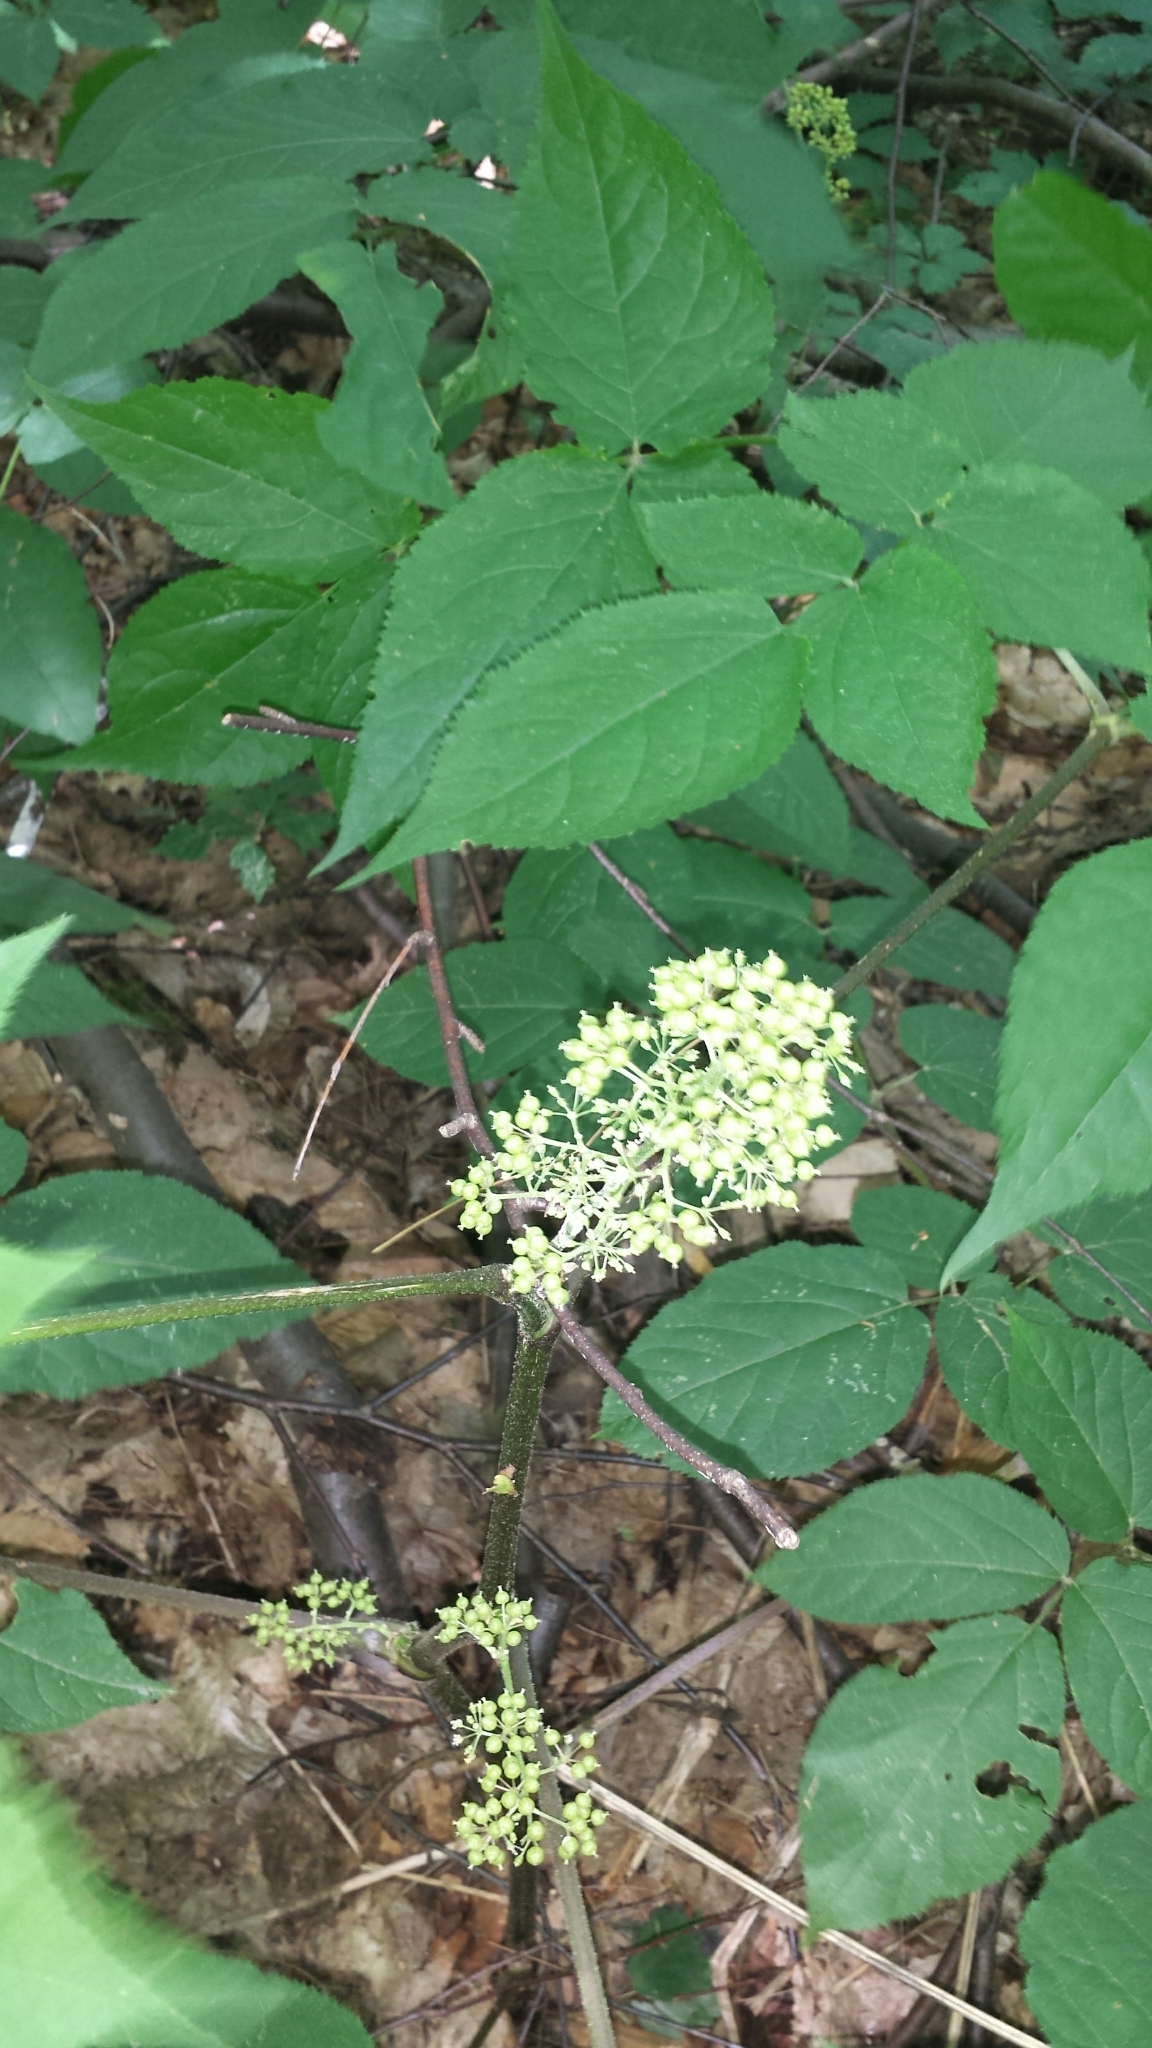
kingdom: Plantae
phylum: Tracheophyta
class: Magnoliopsida
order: Apiales
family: Araliaceae
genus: Aralia
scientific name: Aralia racemosa
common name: American-spikenard
